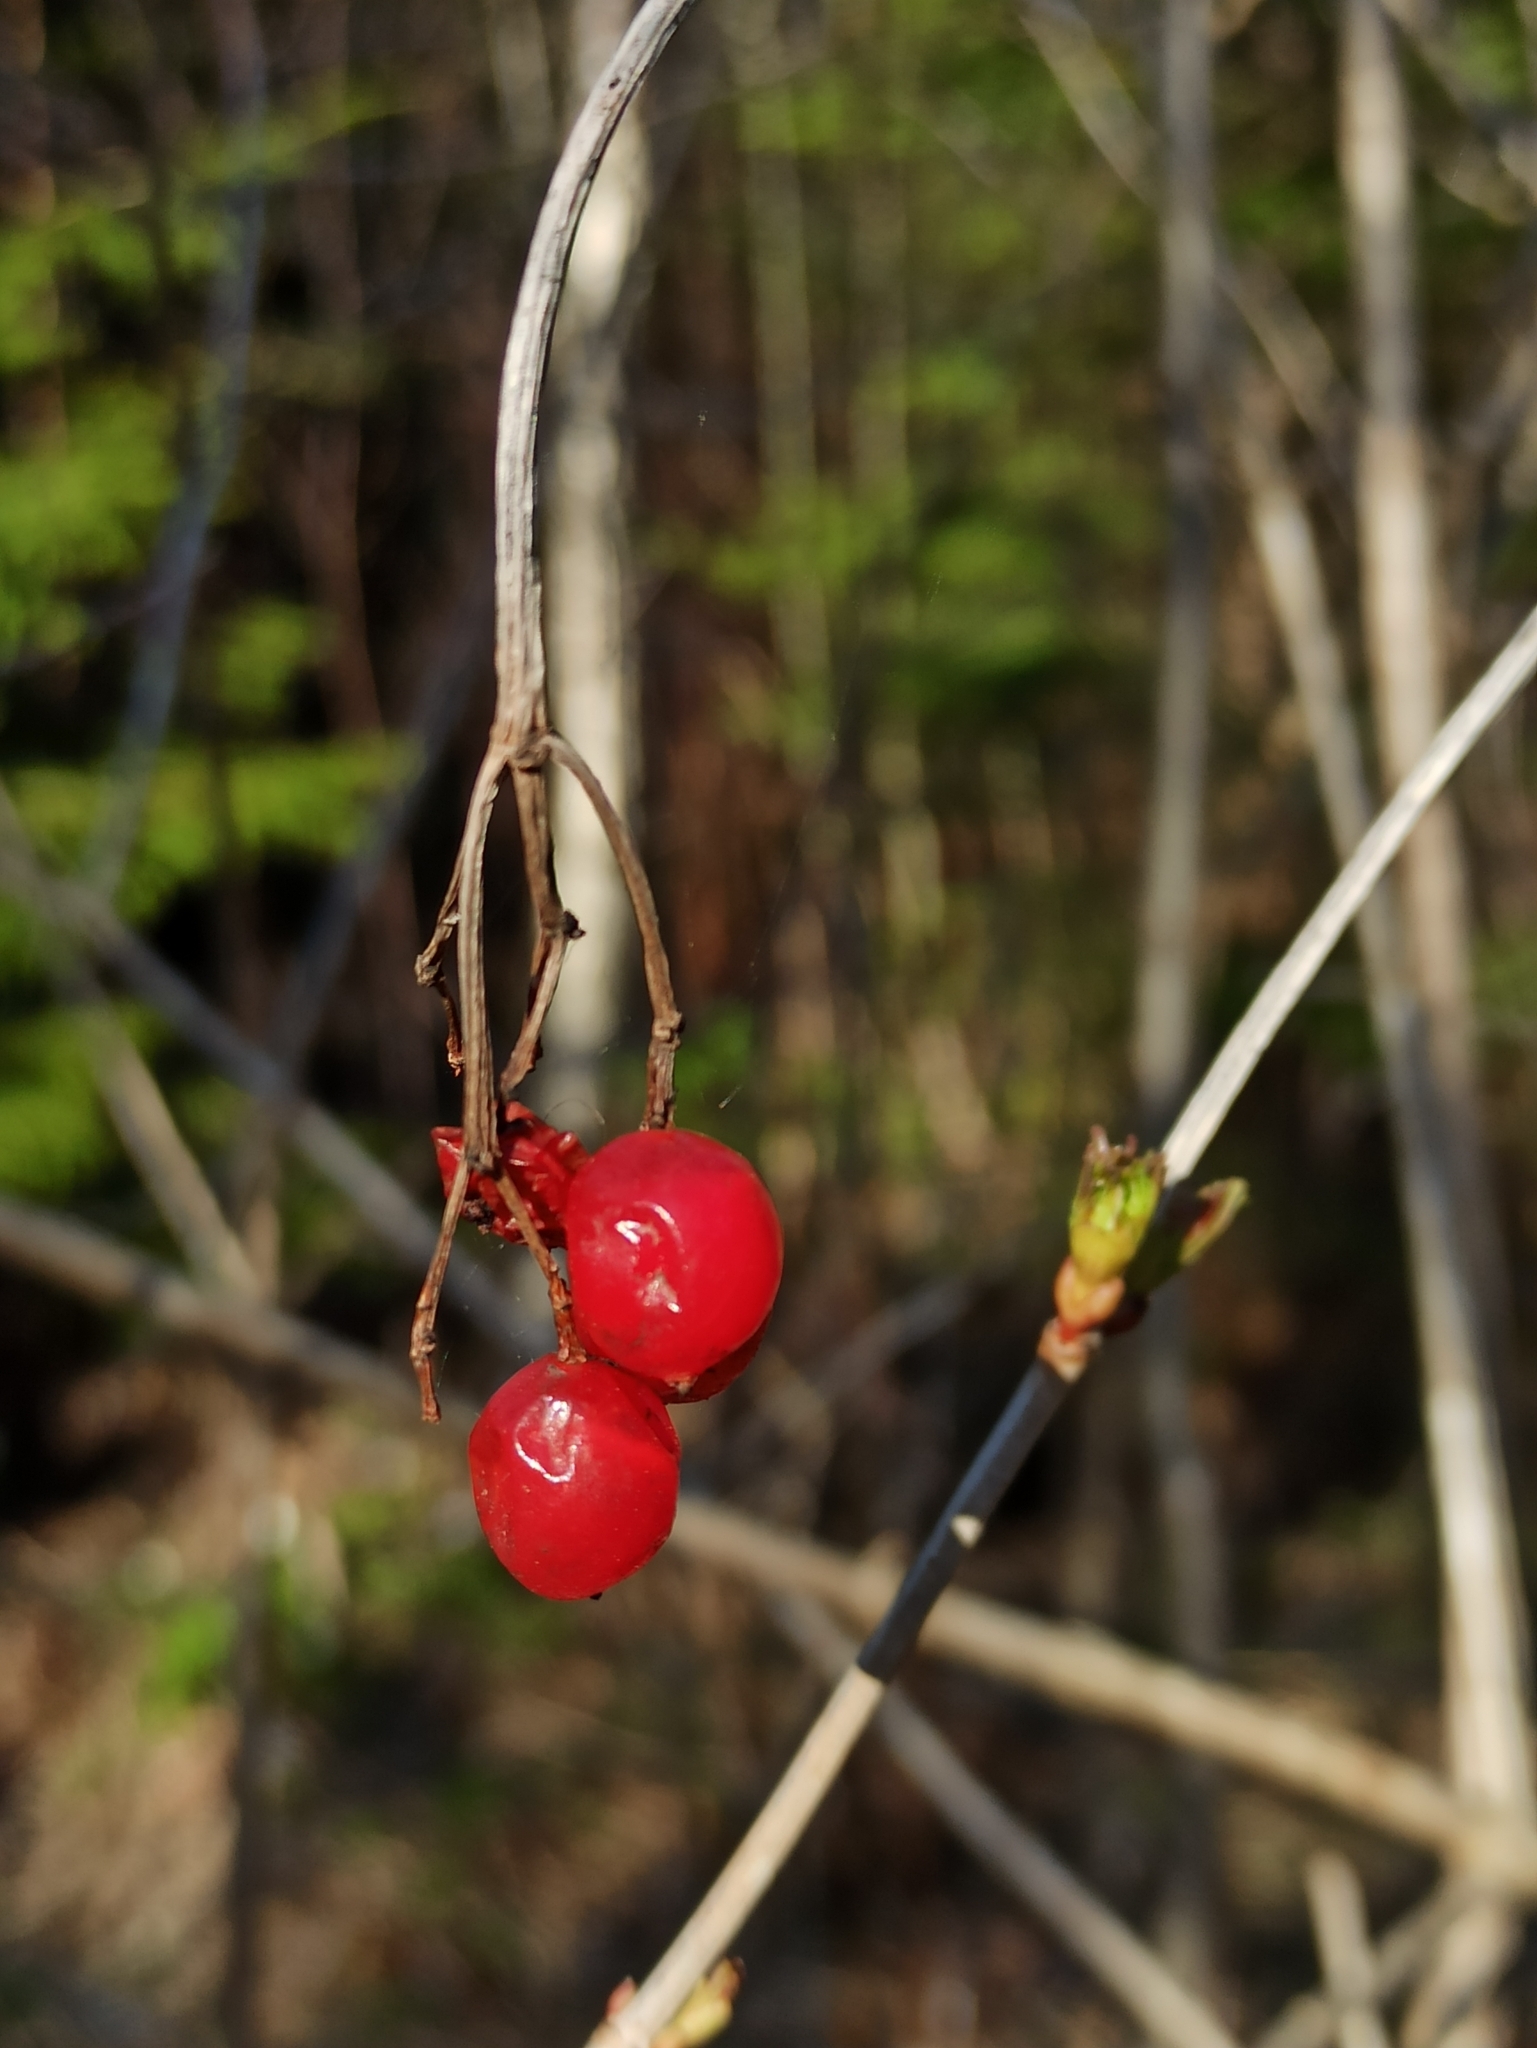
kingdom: Plantae
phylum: Tracheophyta
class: Magnoliopsida
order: Dipsacales
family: Viburnaceae
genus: Viburnum
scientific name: Viburnum opulus
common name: Guelder-rose
